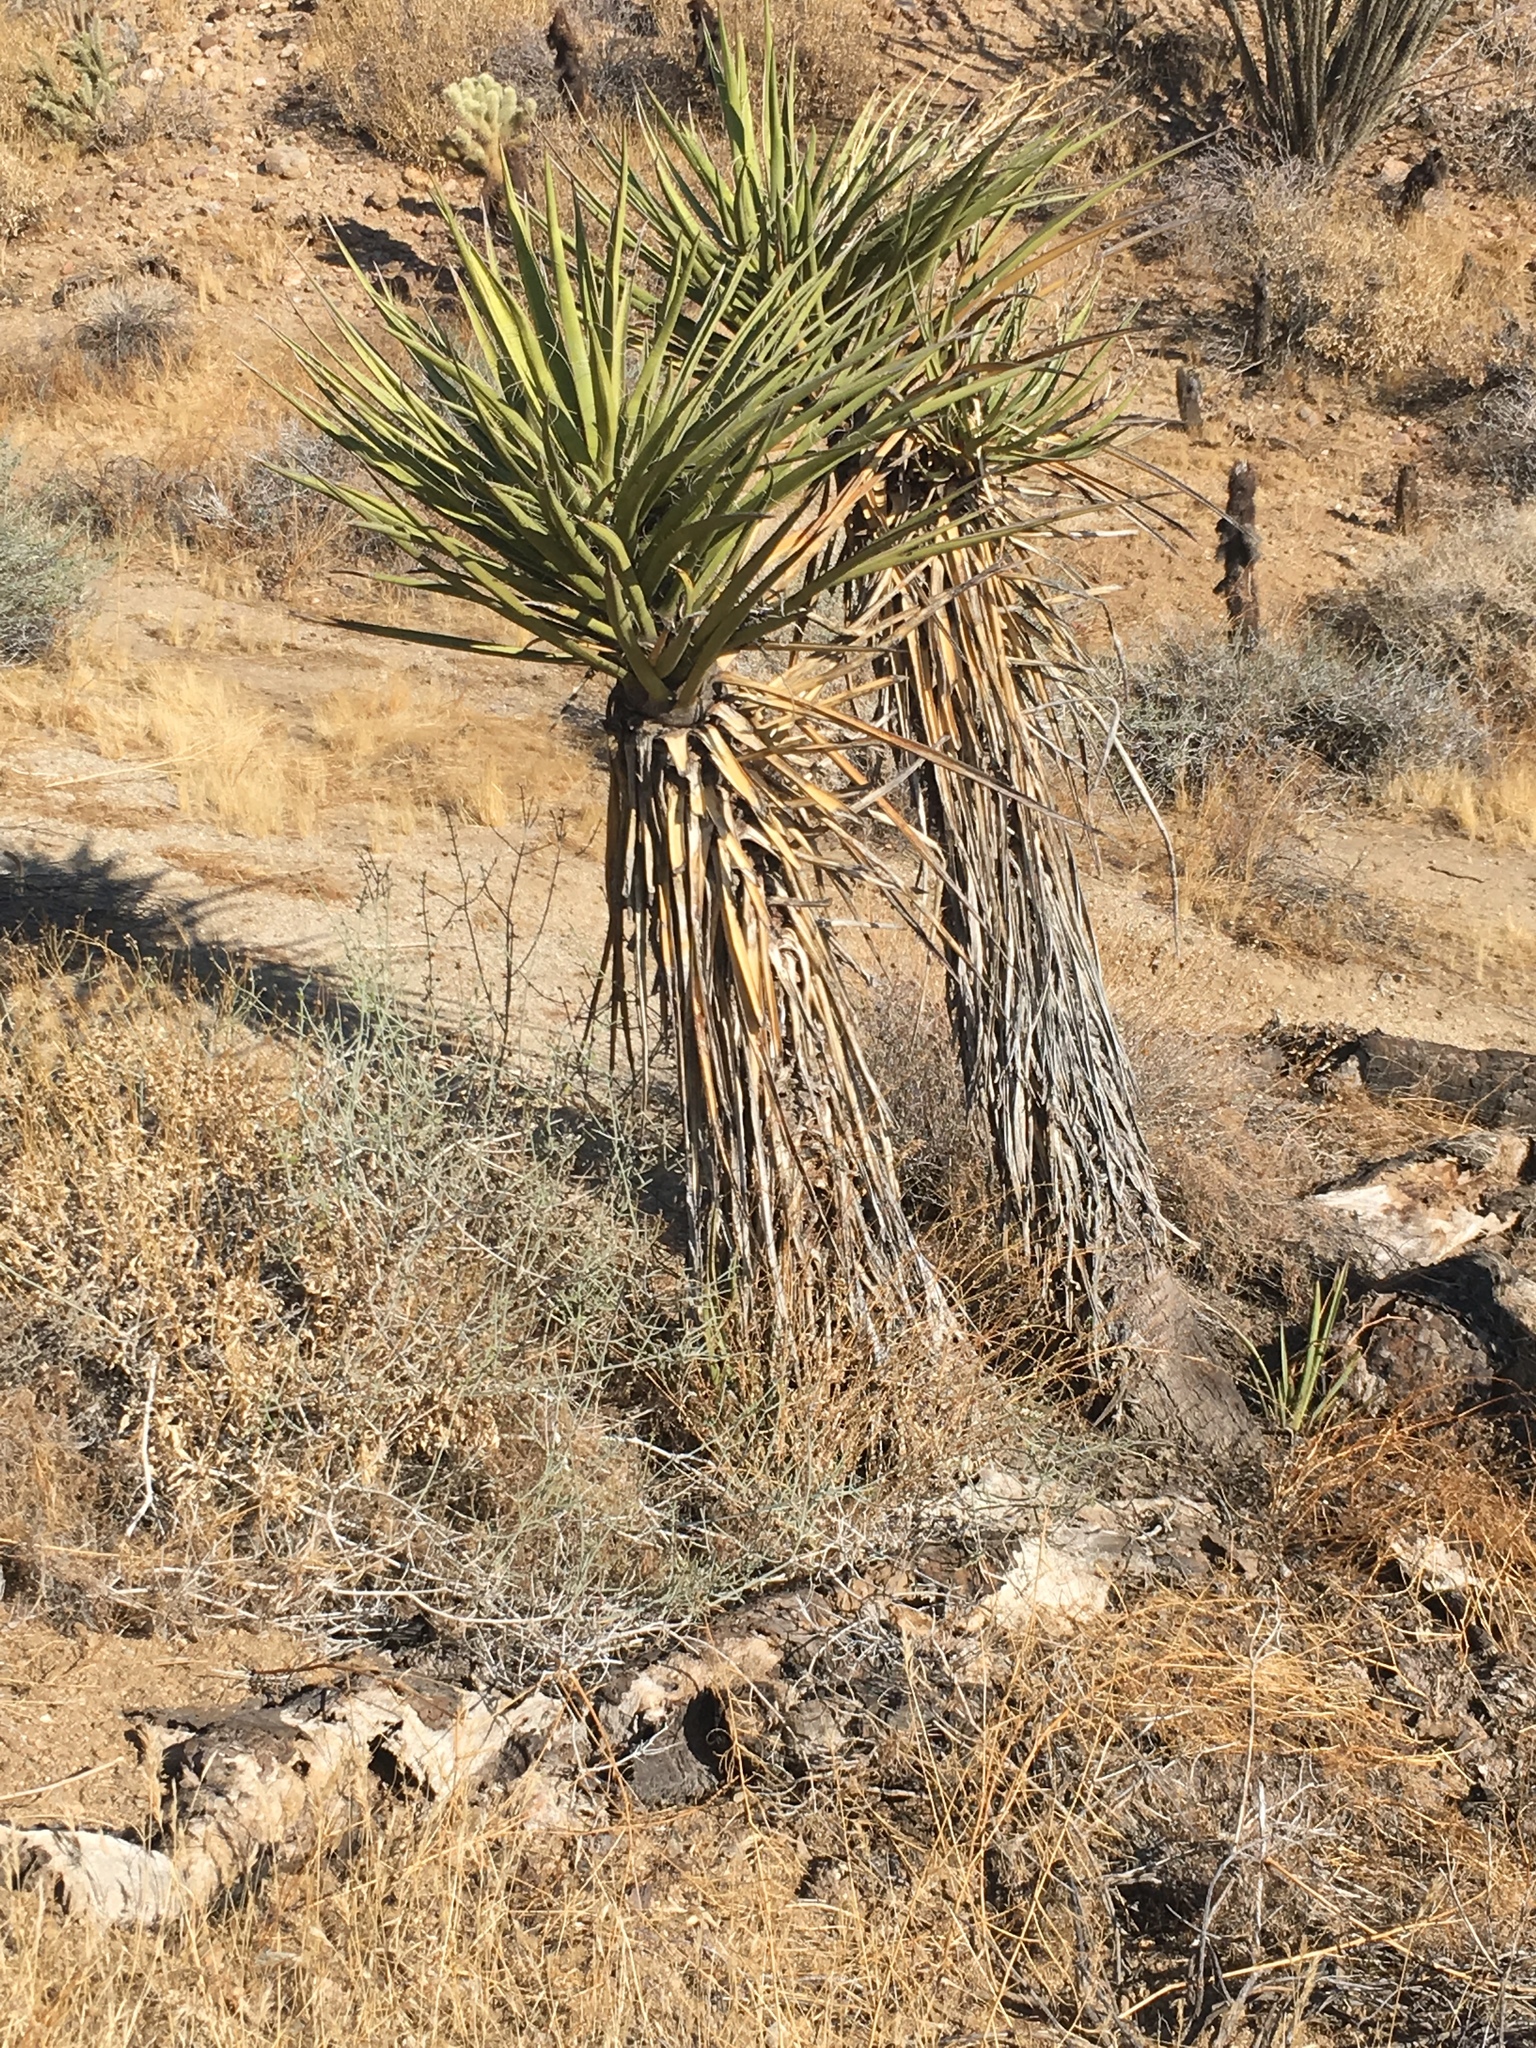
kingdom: Plantae
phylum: Tracheophyta
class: Liliopsida
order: Asparagales
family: Asparagaceae
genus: Yucca
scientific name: Yucca schidigera
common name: Mojave yucca
